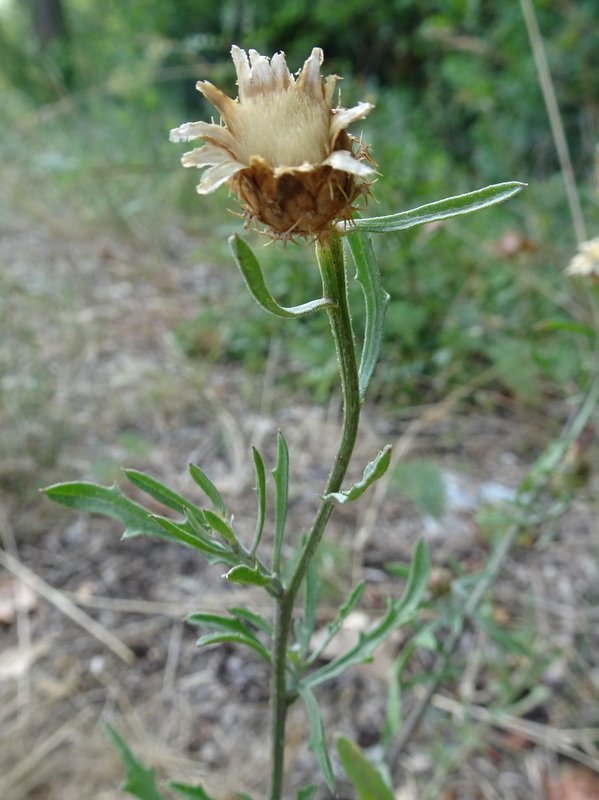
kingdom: Plantae
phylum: Tracheophyta
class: Magnoliopsida
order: Asterales
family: Asteraceae
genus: Centaurea
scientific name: Centaurea aspera
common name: Rough star-thistle
